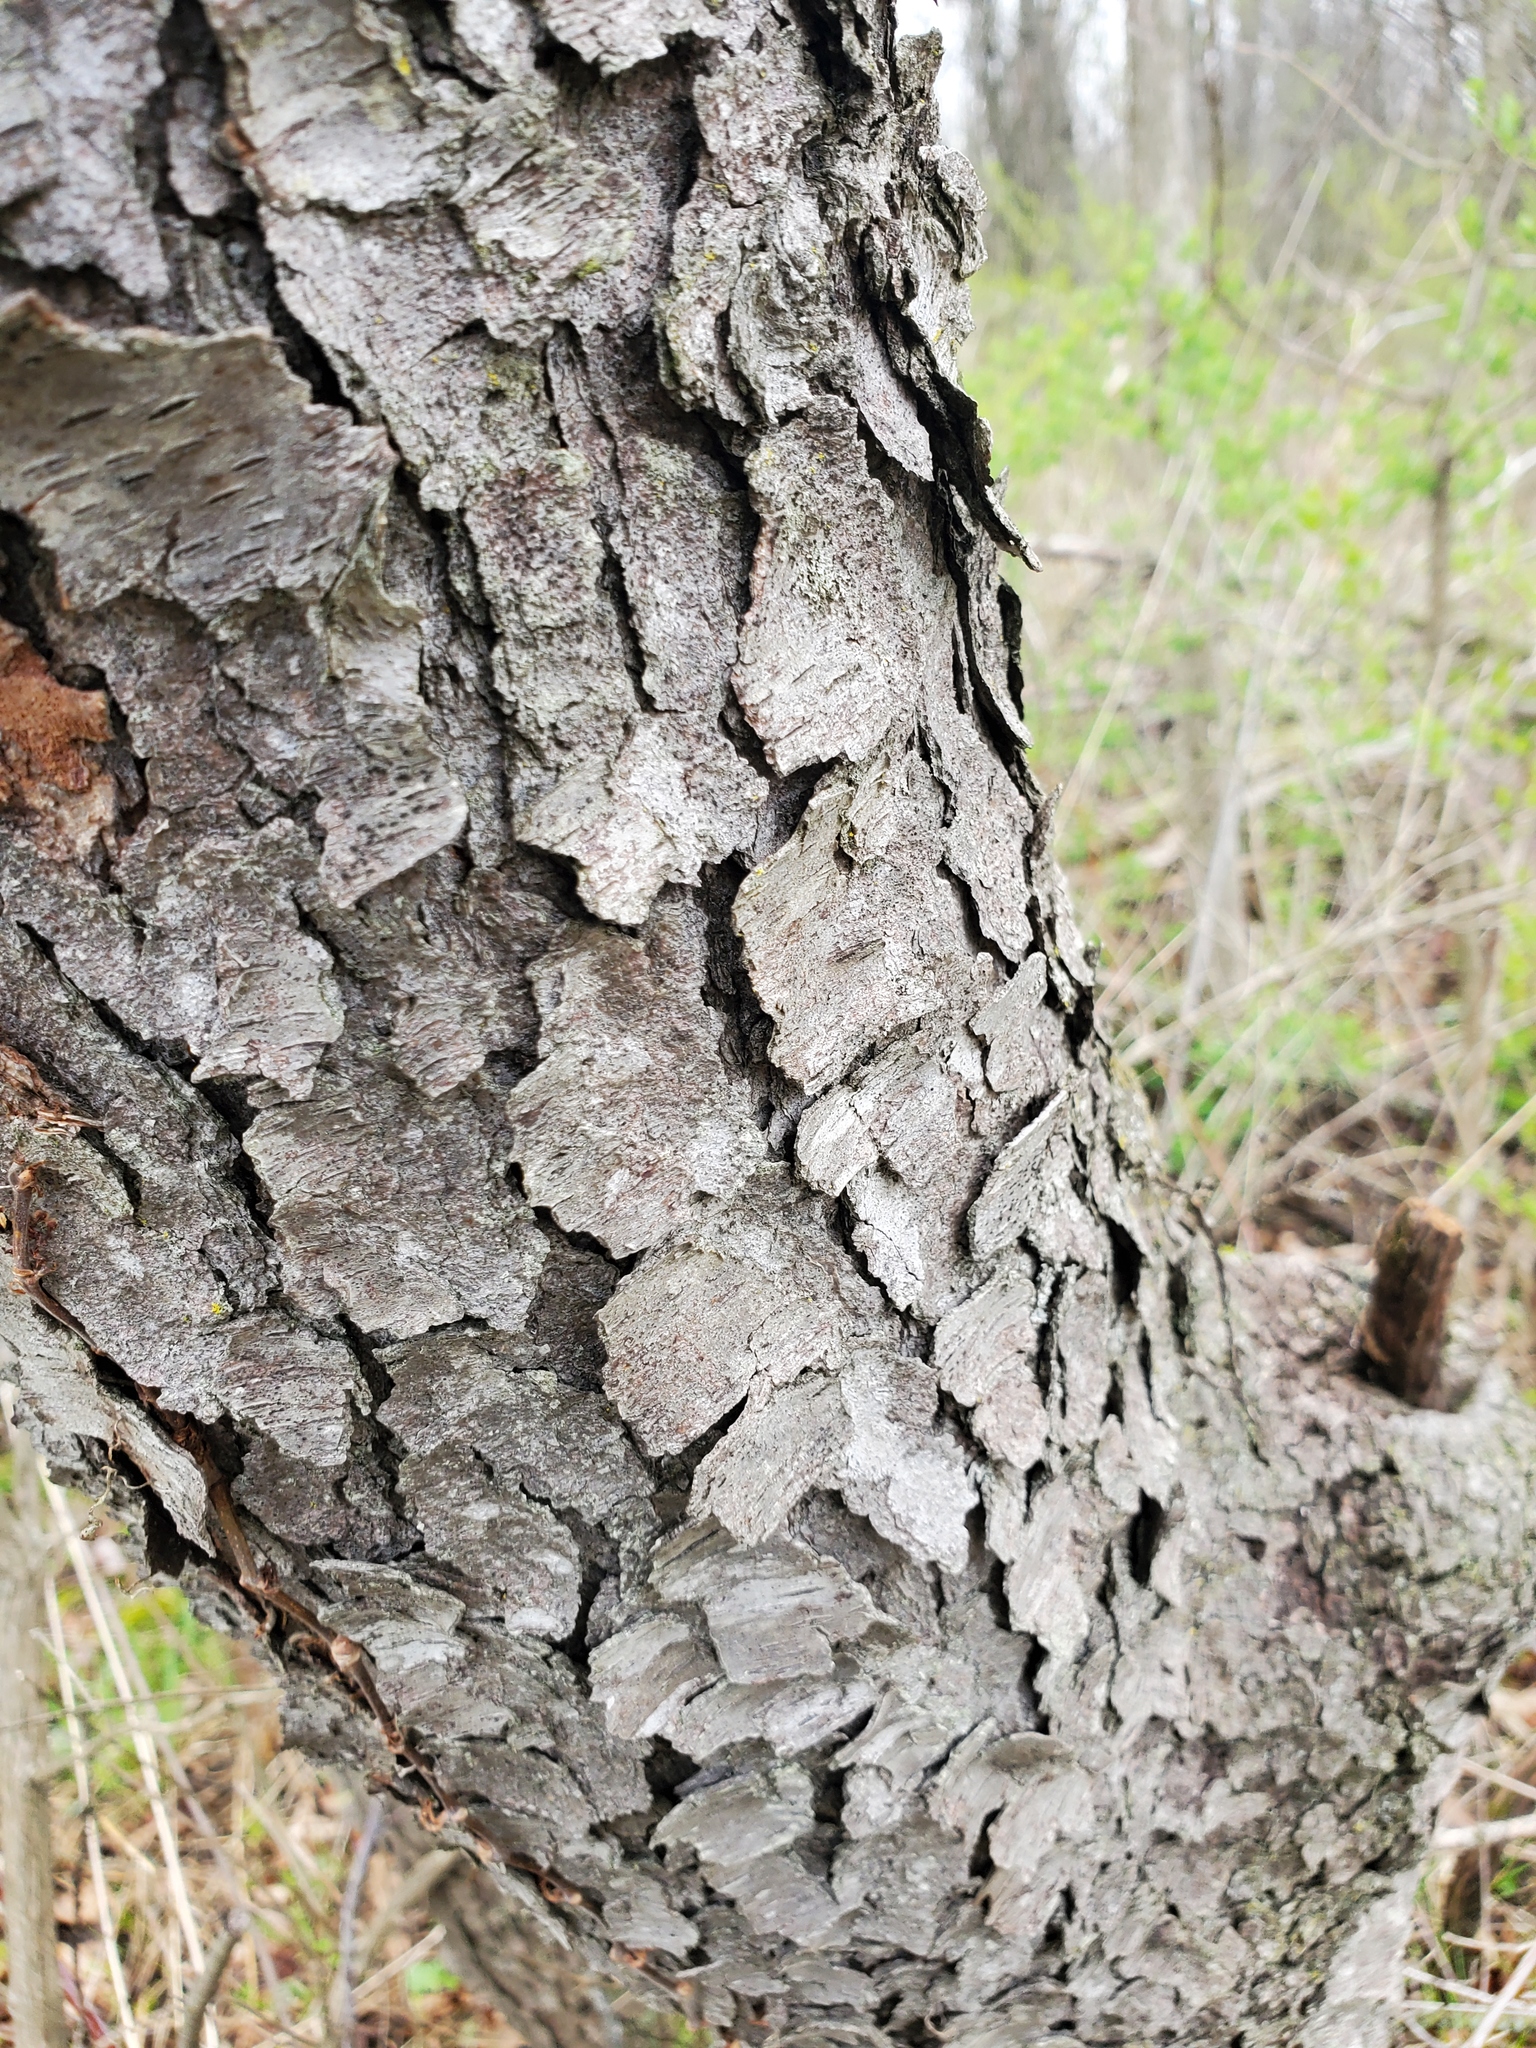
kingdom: Plantae
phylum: Tracheophyta
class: Magnoliopsida
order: Rosales
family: Rosaceae
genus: Prunus
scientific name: Prunus serotina
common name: Black cherry
